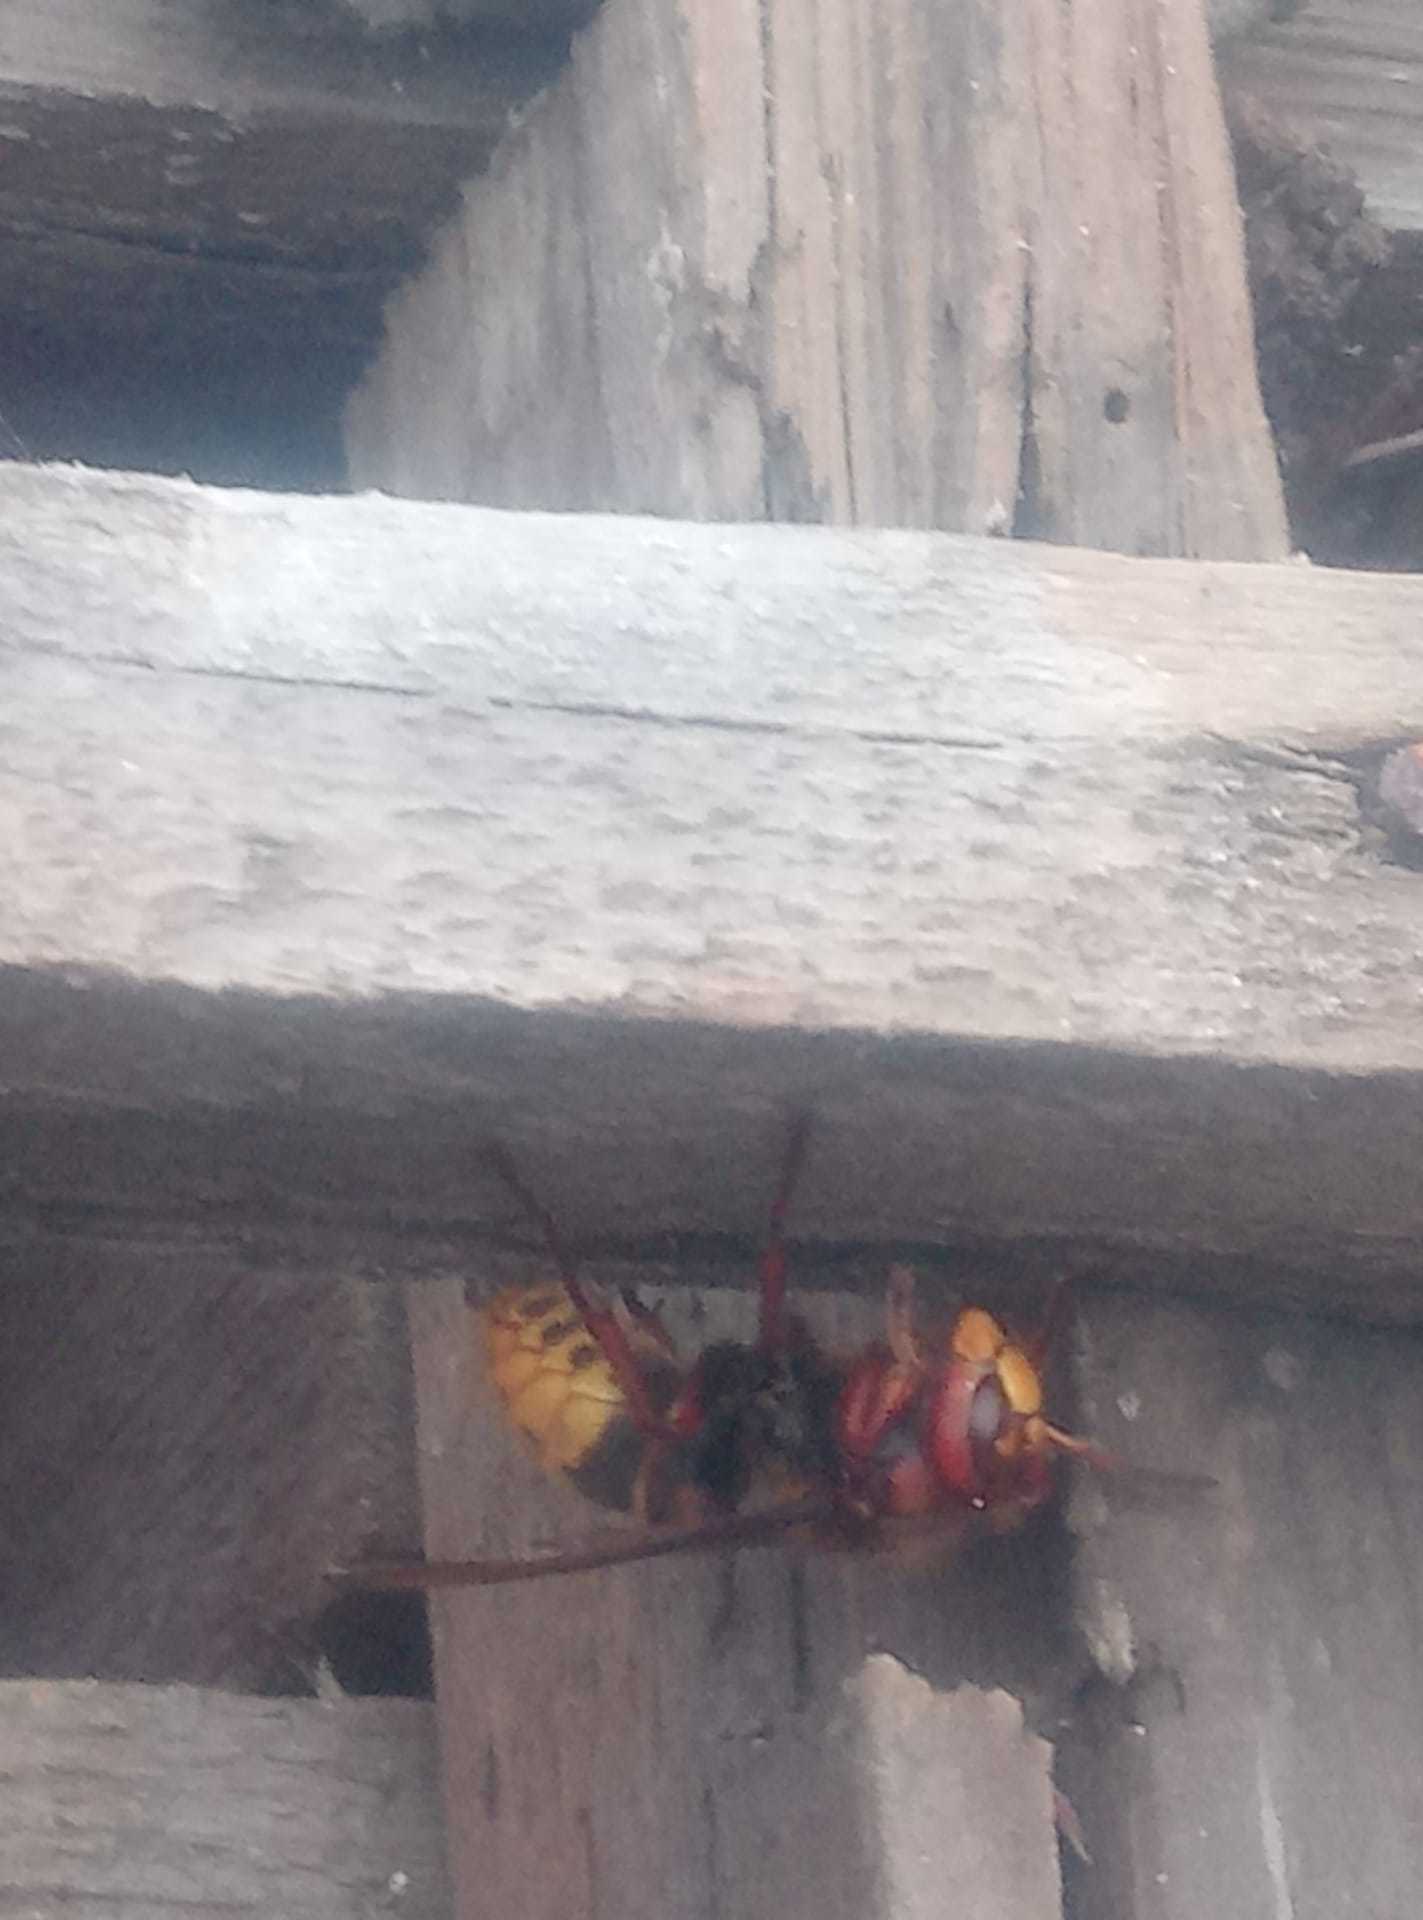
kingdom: Animalia
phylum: Arthropoda
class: Insecta
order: Hymenoptera
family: Vespidae
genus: Vespa
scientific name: Vespa crabro
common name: Hornet
